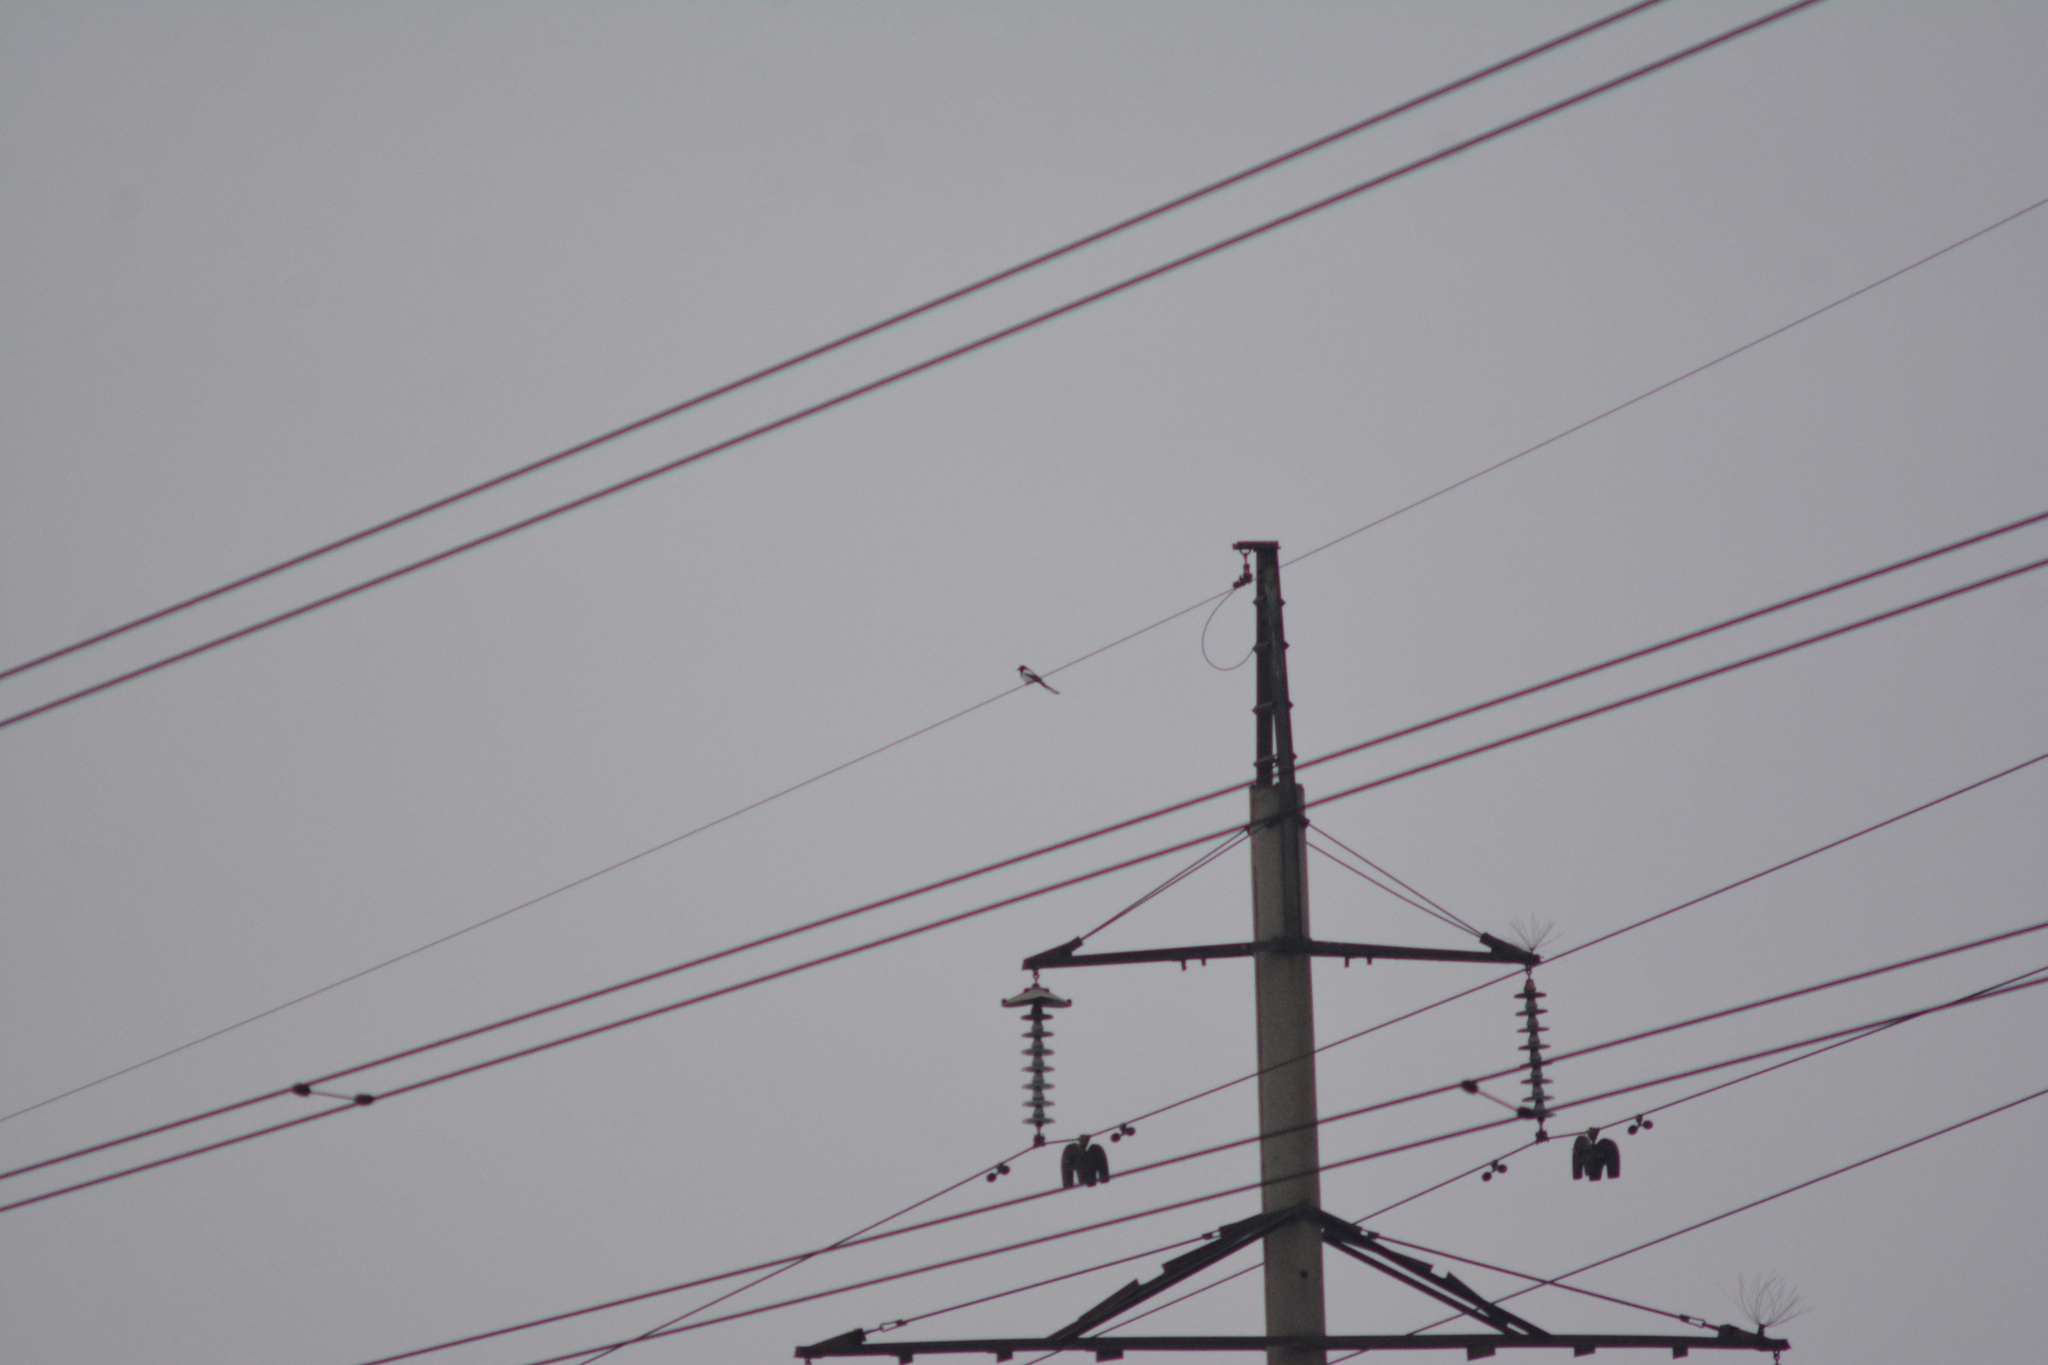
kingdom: Animalia
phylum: Chordata
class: Aves
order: Passeriformes
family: Corvidae
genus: Pica
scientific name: Pica pica
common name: Eurasian magpie
